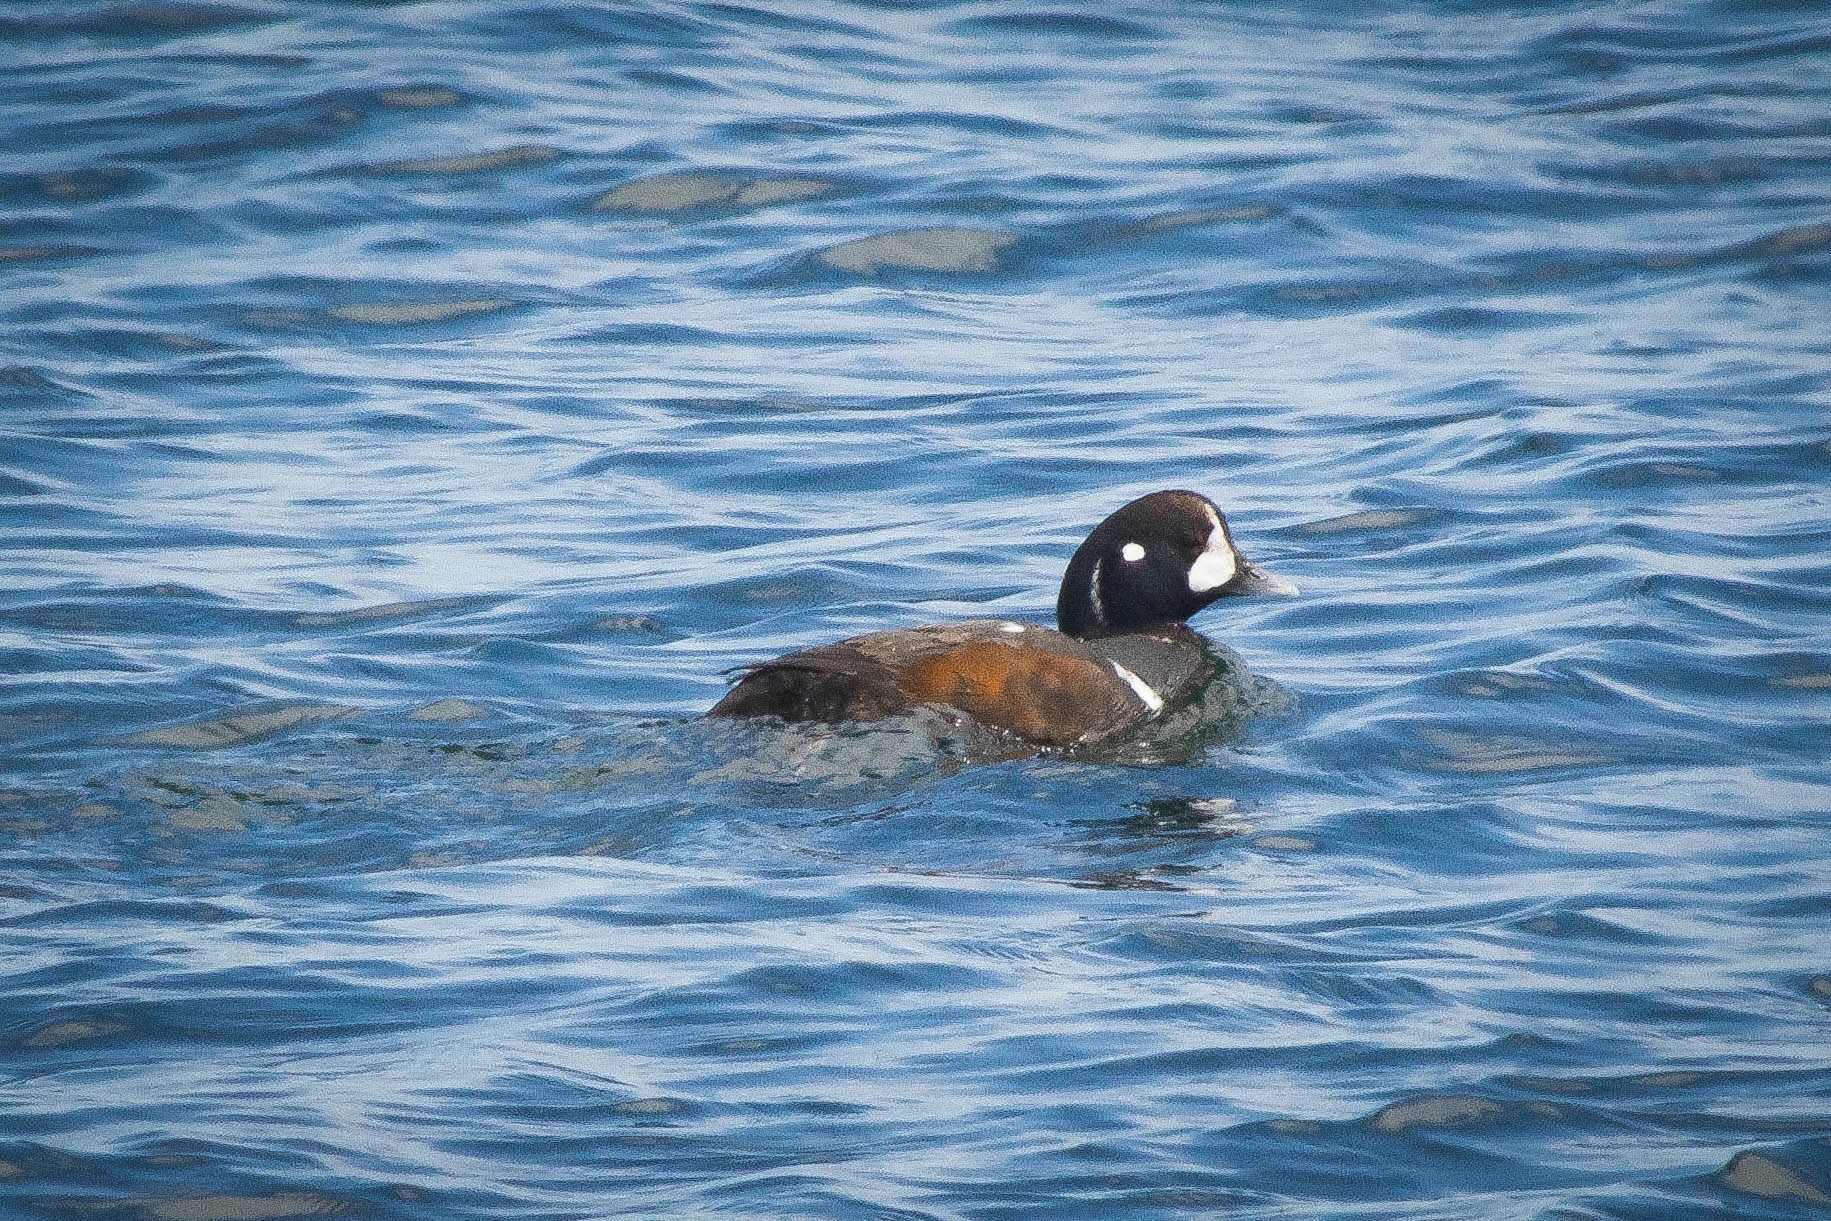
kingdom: Animalia
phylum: Chordata
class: Aves
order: Anseriformes
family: Anatidae
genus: Histrionicus
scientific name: Histrionicus histrionicus
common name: Harlequin duck
